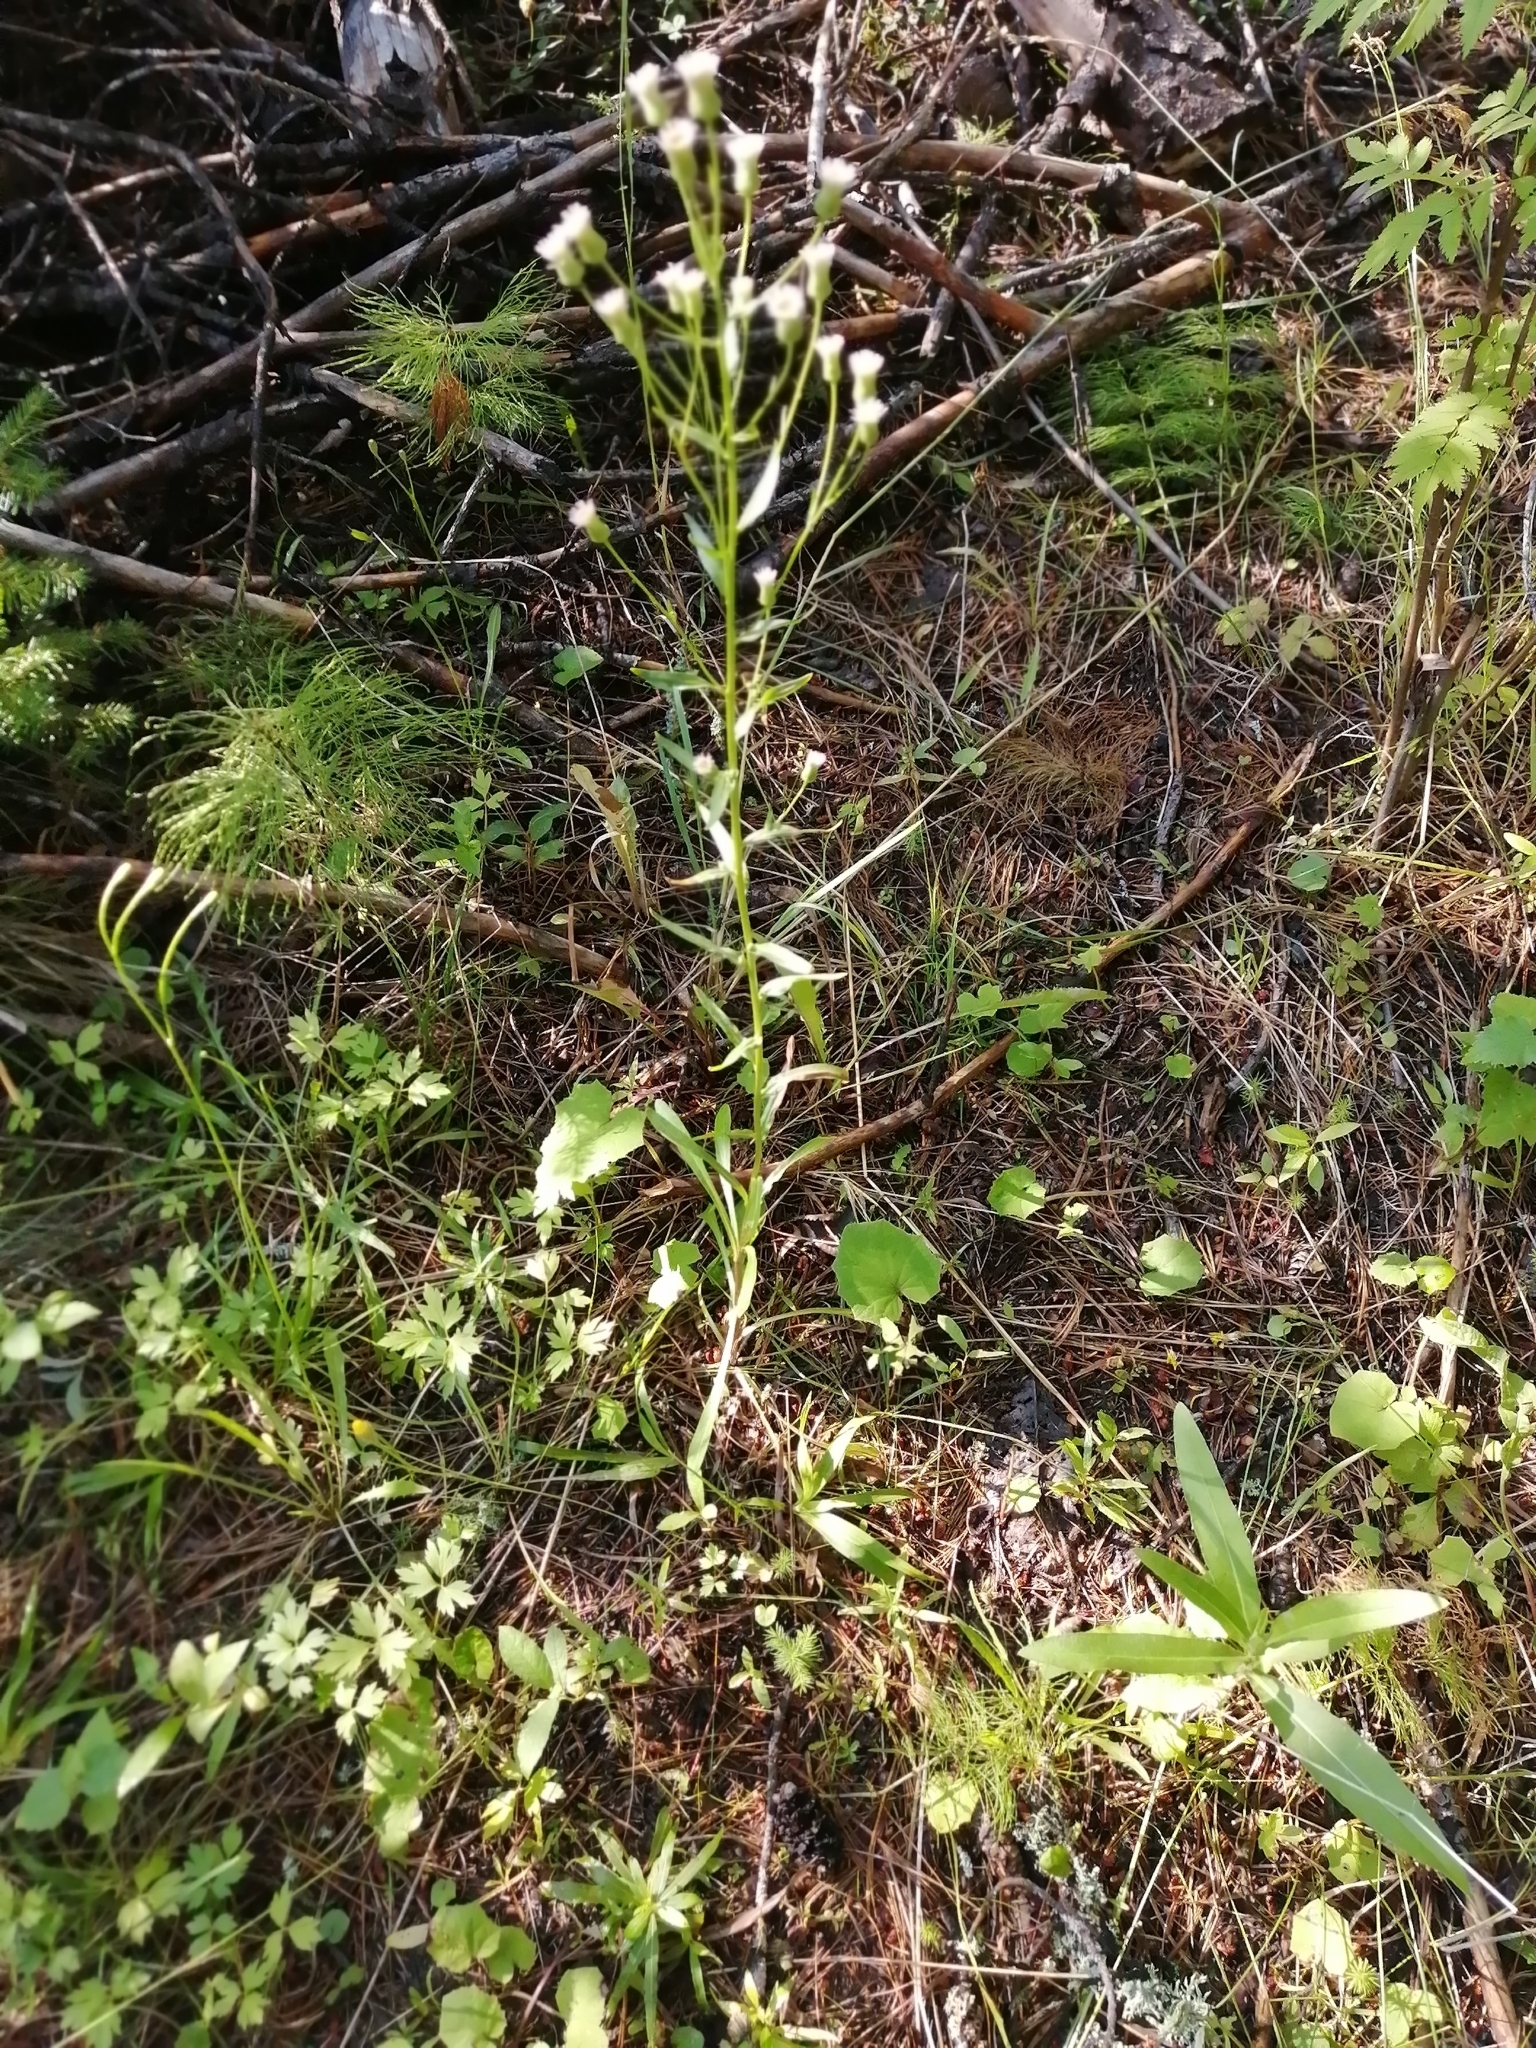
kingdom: Plantae
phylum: Tracheophyta
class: Magnoliopsida
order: Asterales
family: Asteraceae
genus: Erigeron
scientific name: Erigeron canadensis
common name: Canadian fleabane
